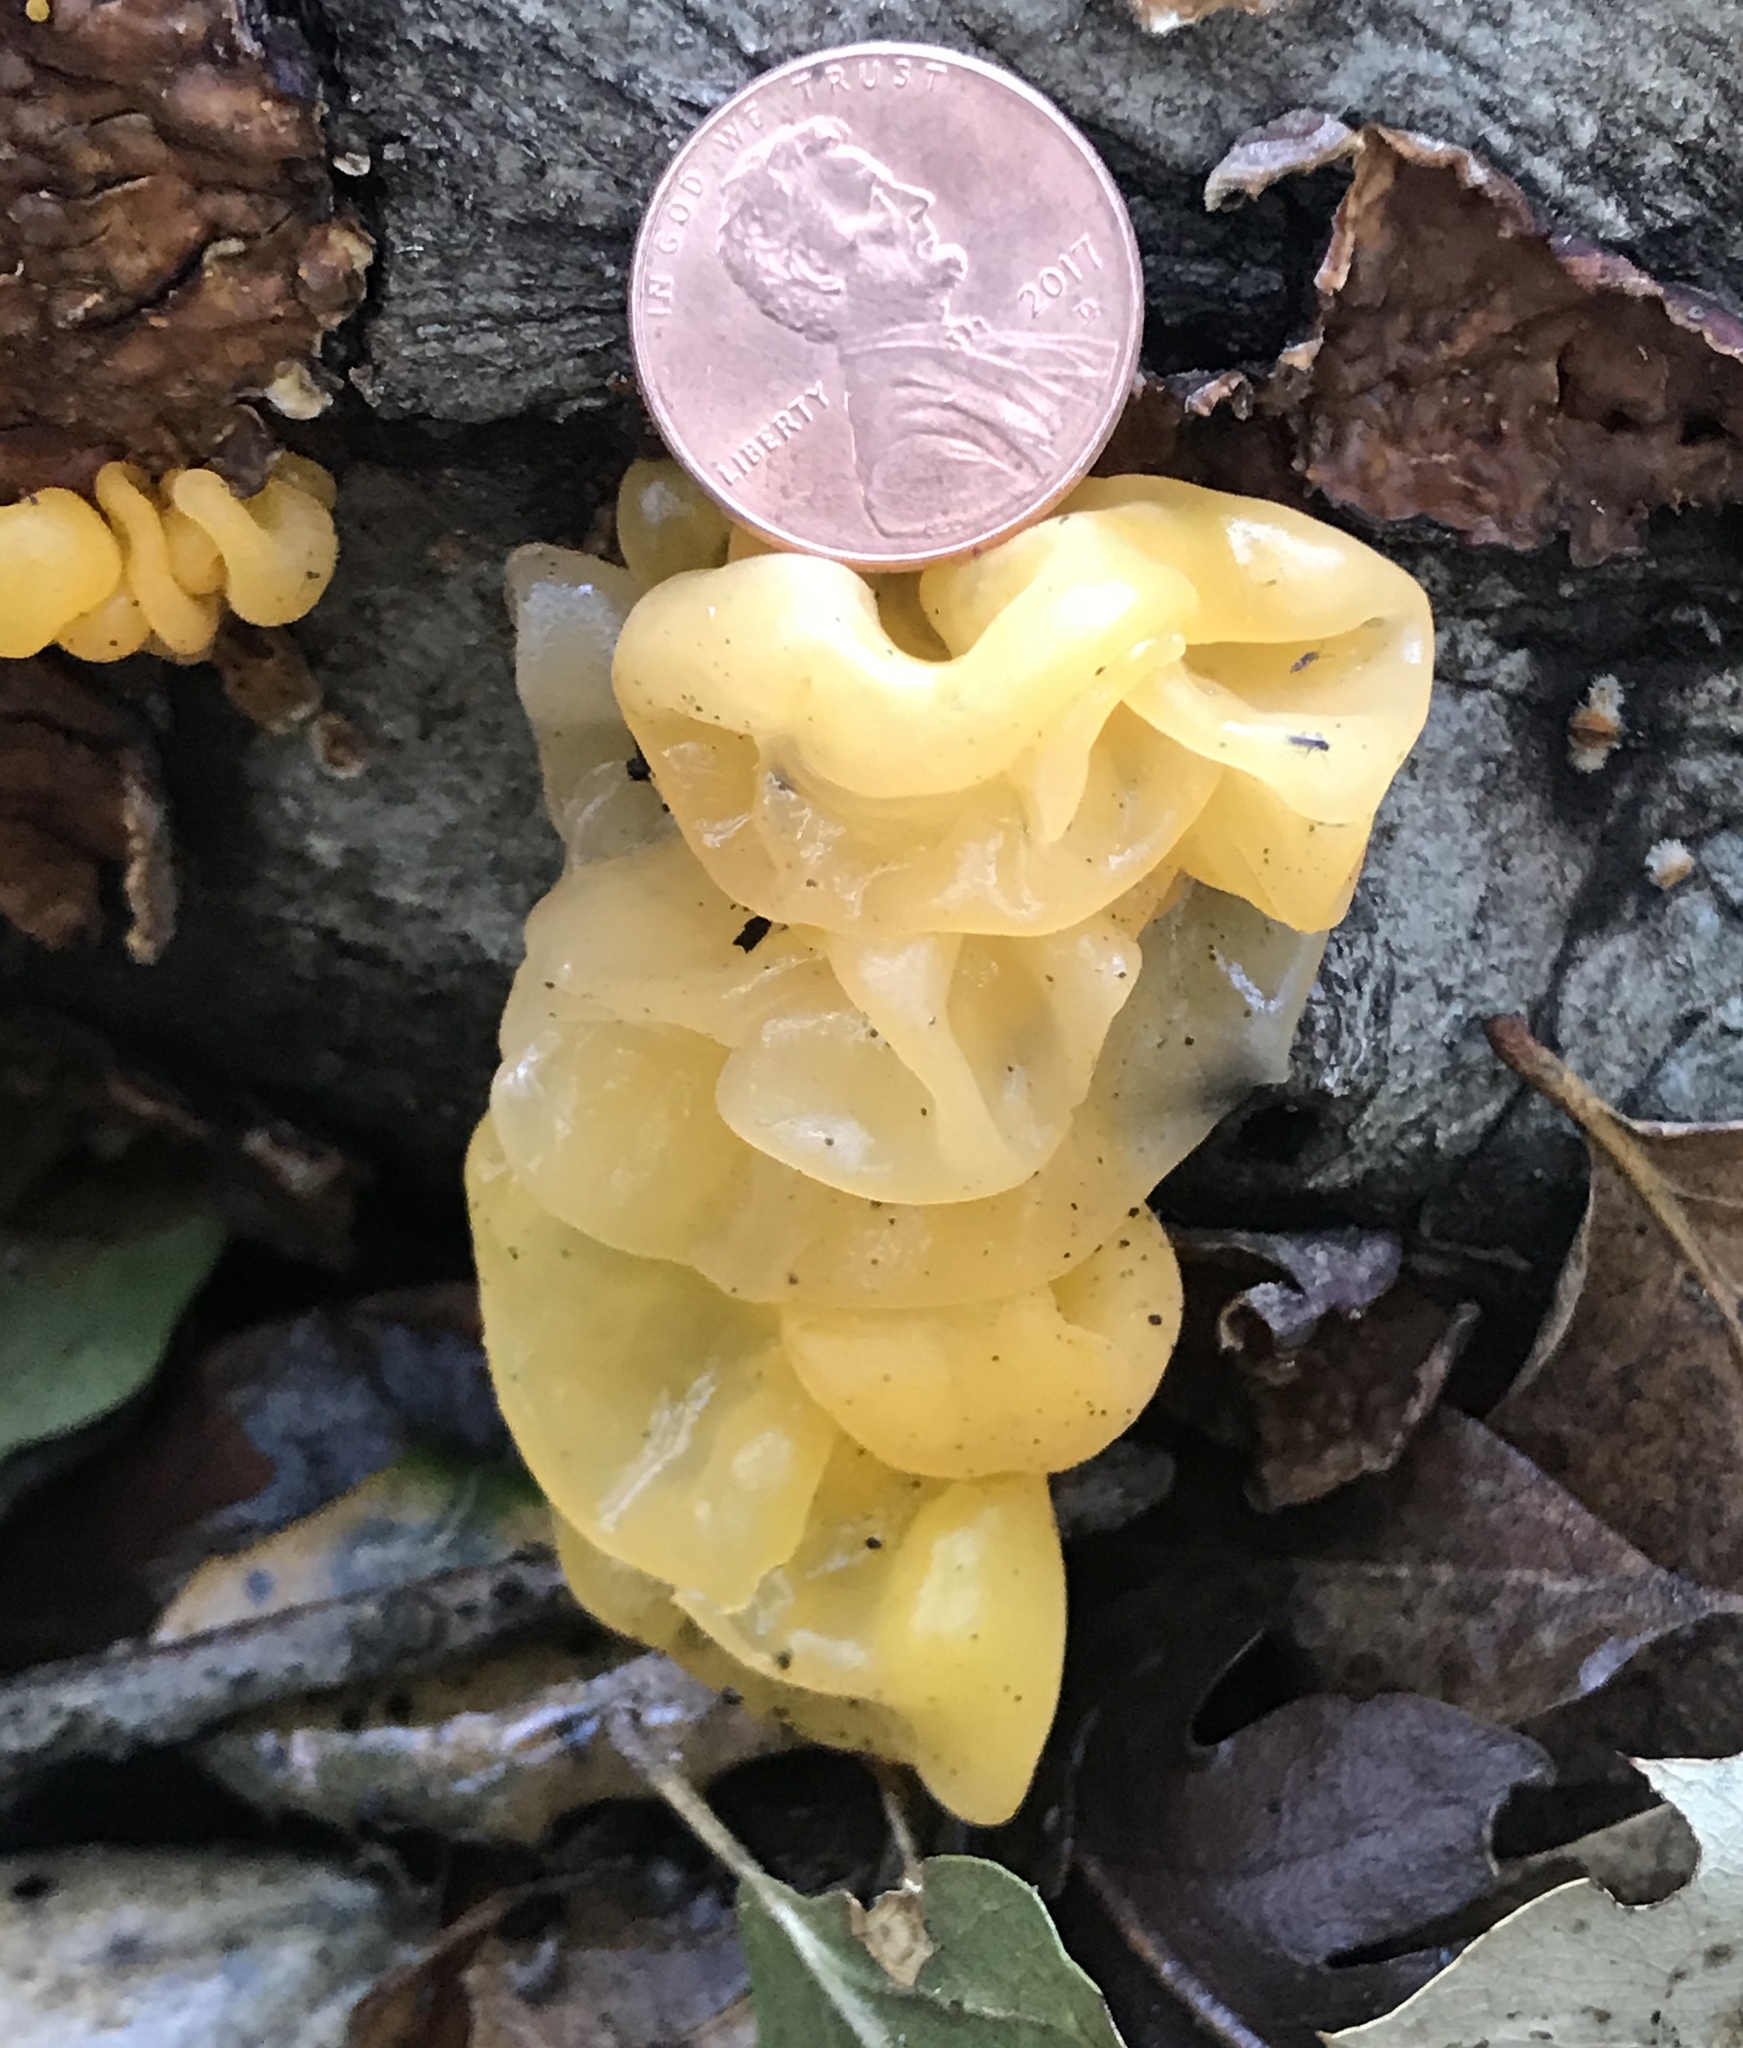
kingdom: Fungi
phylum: Basidiomycota
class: Tremellomycetes
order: Tremellales
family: Naemateliaceae
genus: Naematelia
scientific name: Naematelia aurantia
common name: Golden ear
